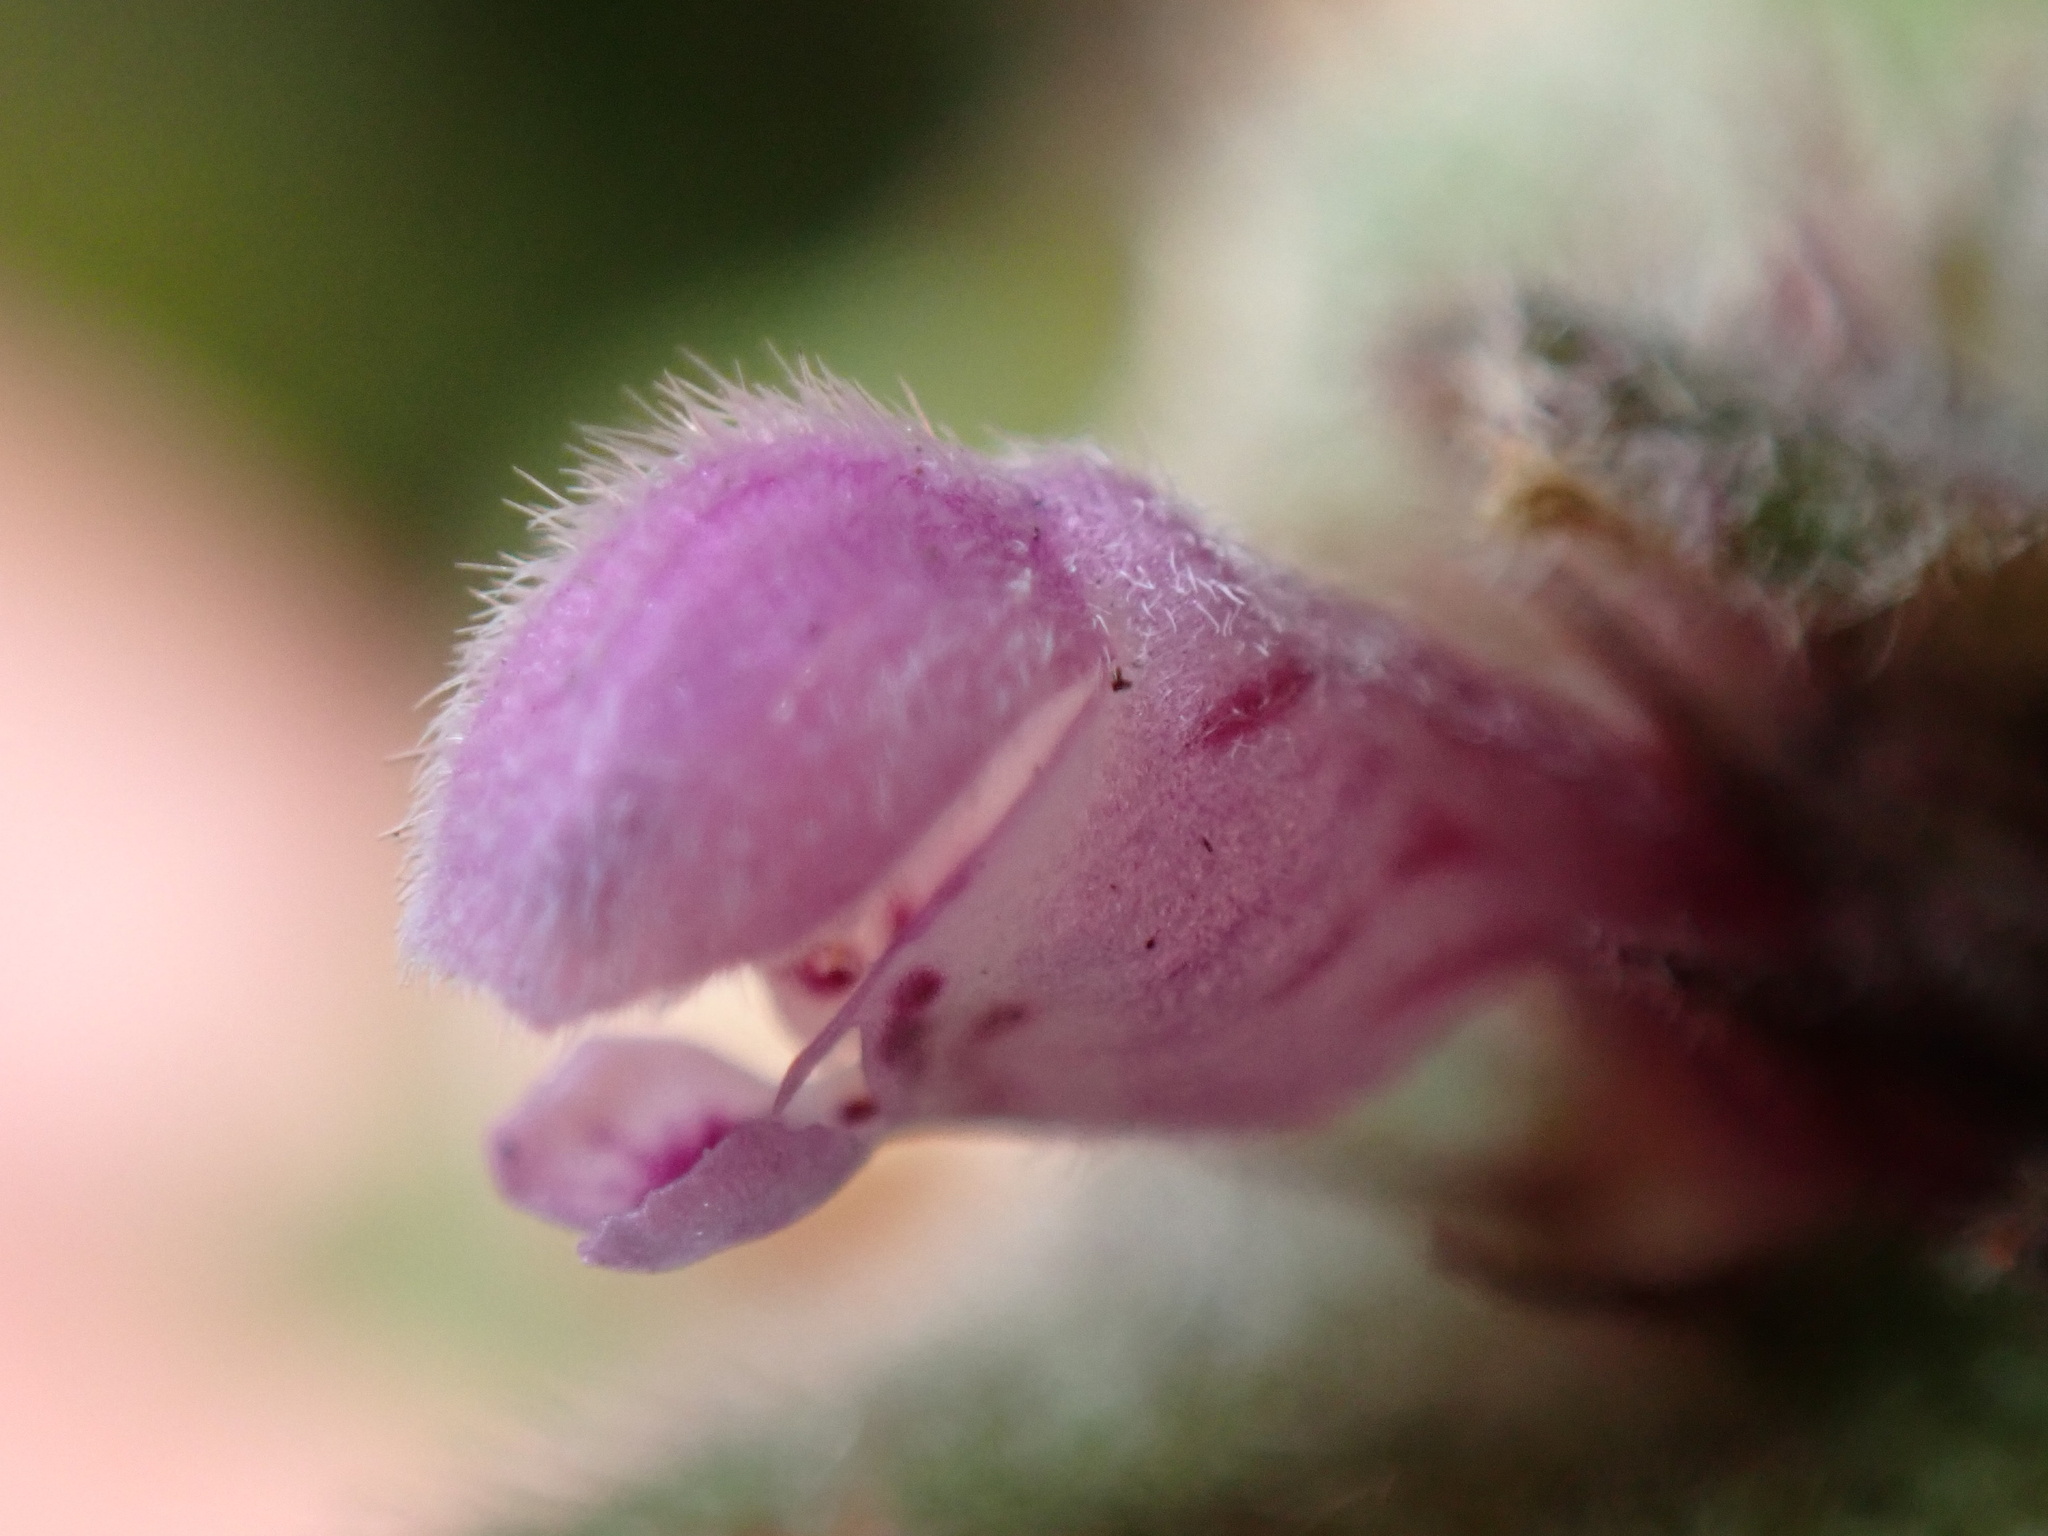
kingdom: Plantae
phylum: Tracheophyta
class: Magnoliopsida
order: Lamiales
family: Lamiaceae
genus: Lamium
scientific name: Lamium maculatum
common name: Spotted dead-nettle
